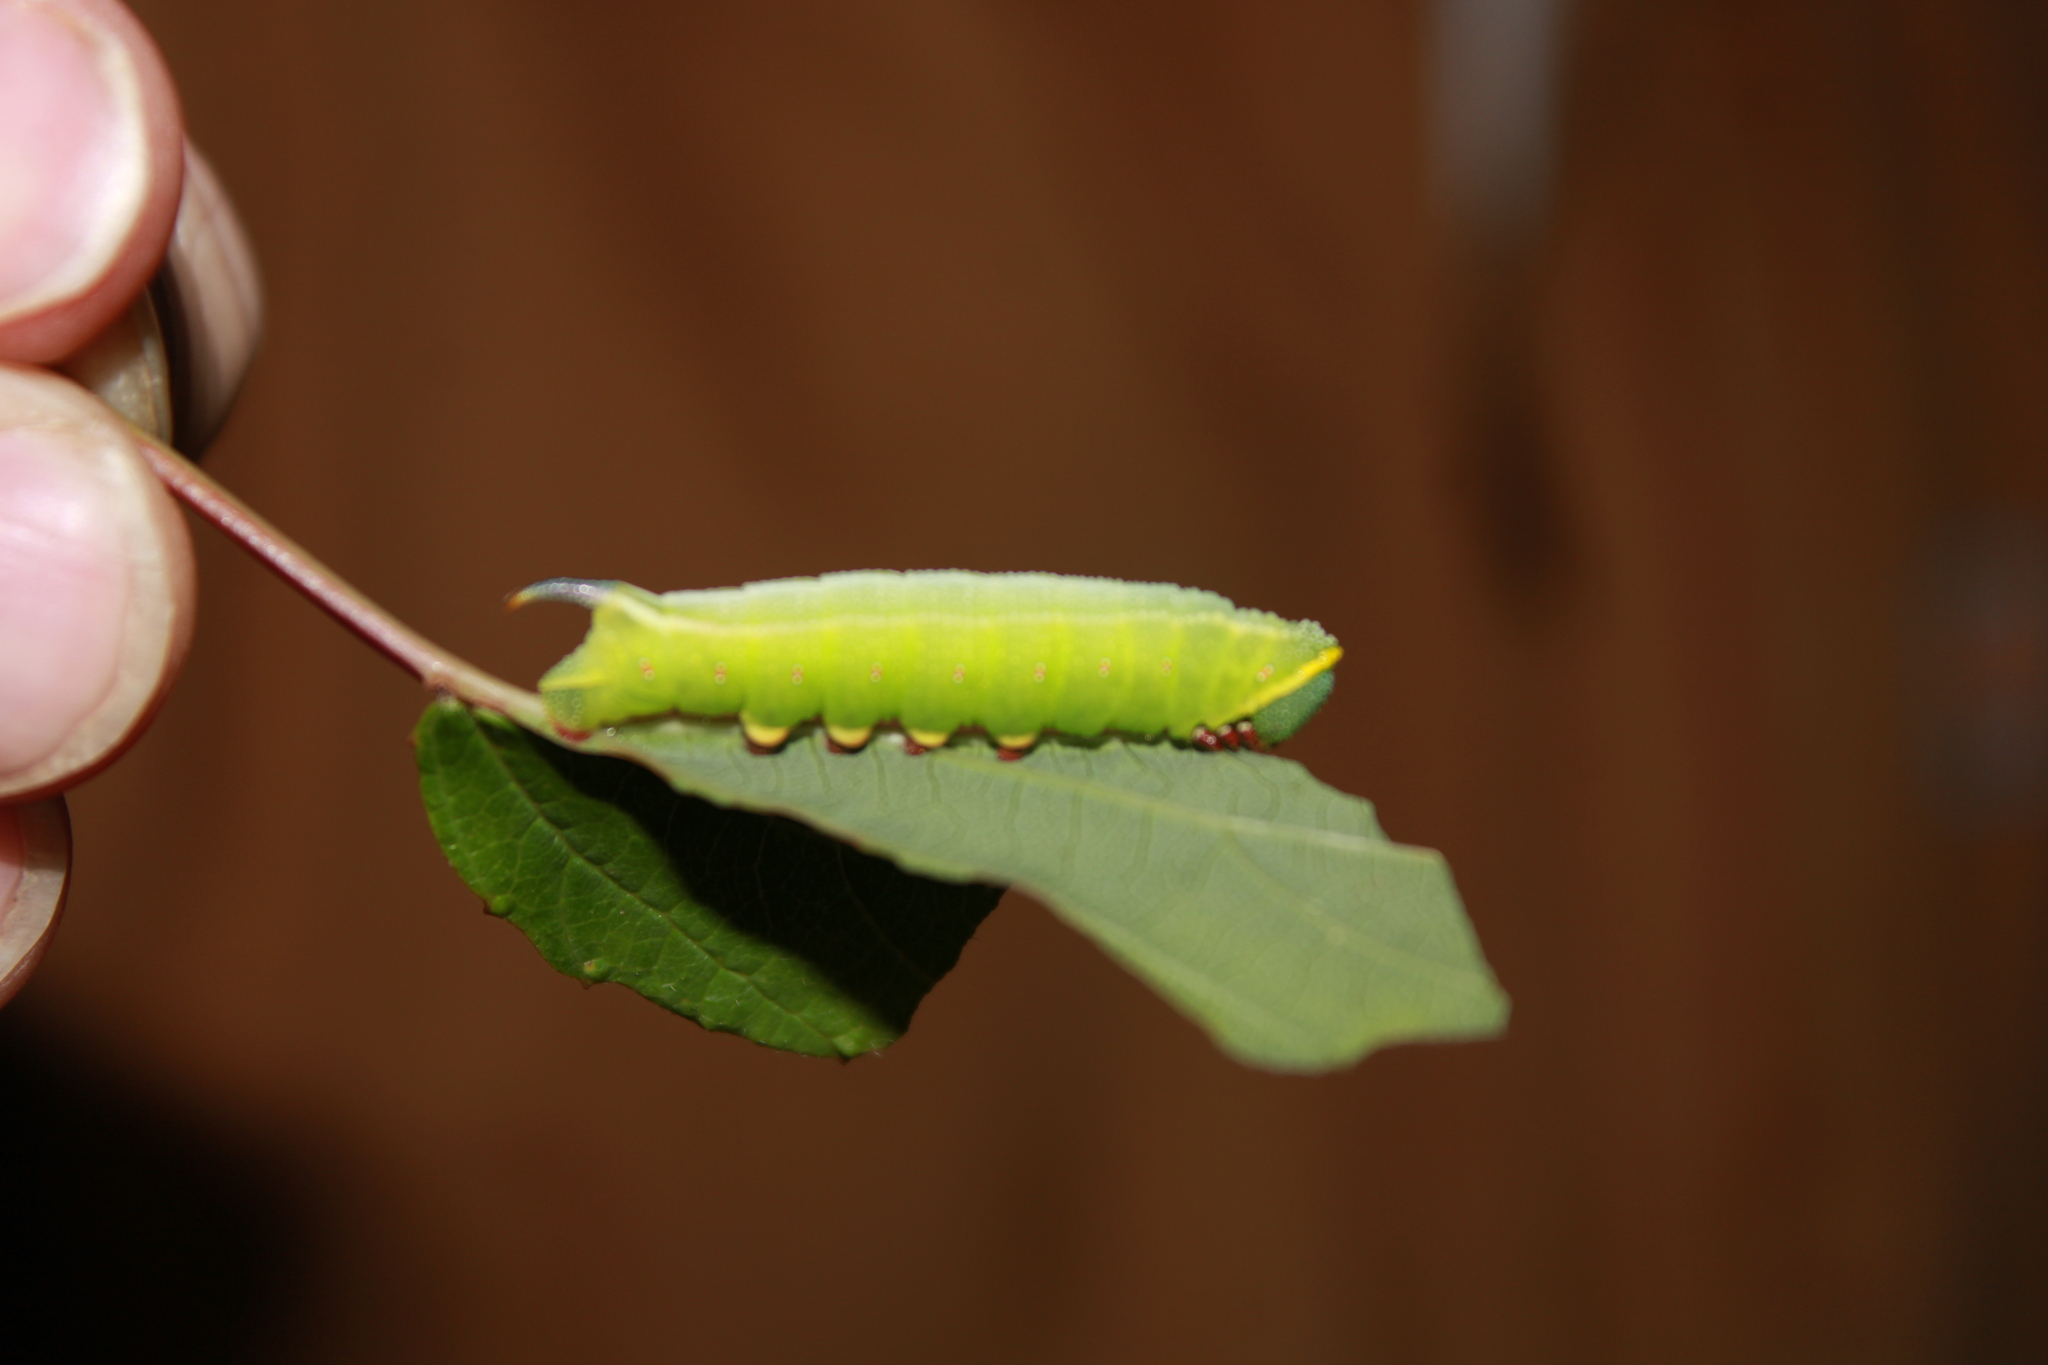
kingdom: Animalia
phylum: Arthropoda
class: Insecta
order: Lepidoptera
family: Sphingidae
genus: Hemaris
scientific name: Hemaris thysbe
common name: Common clear-wing
